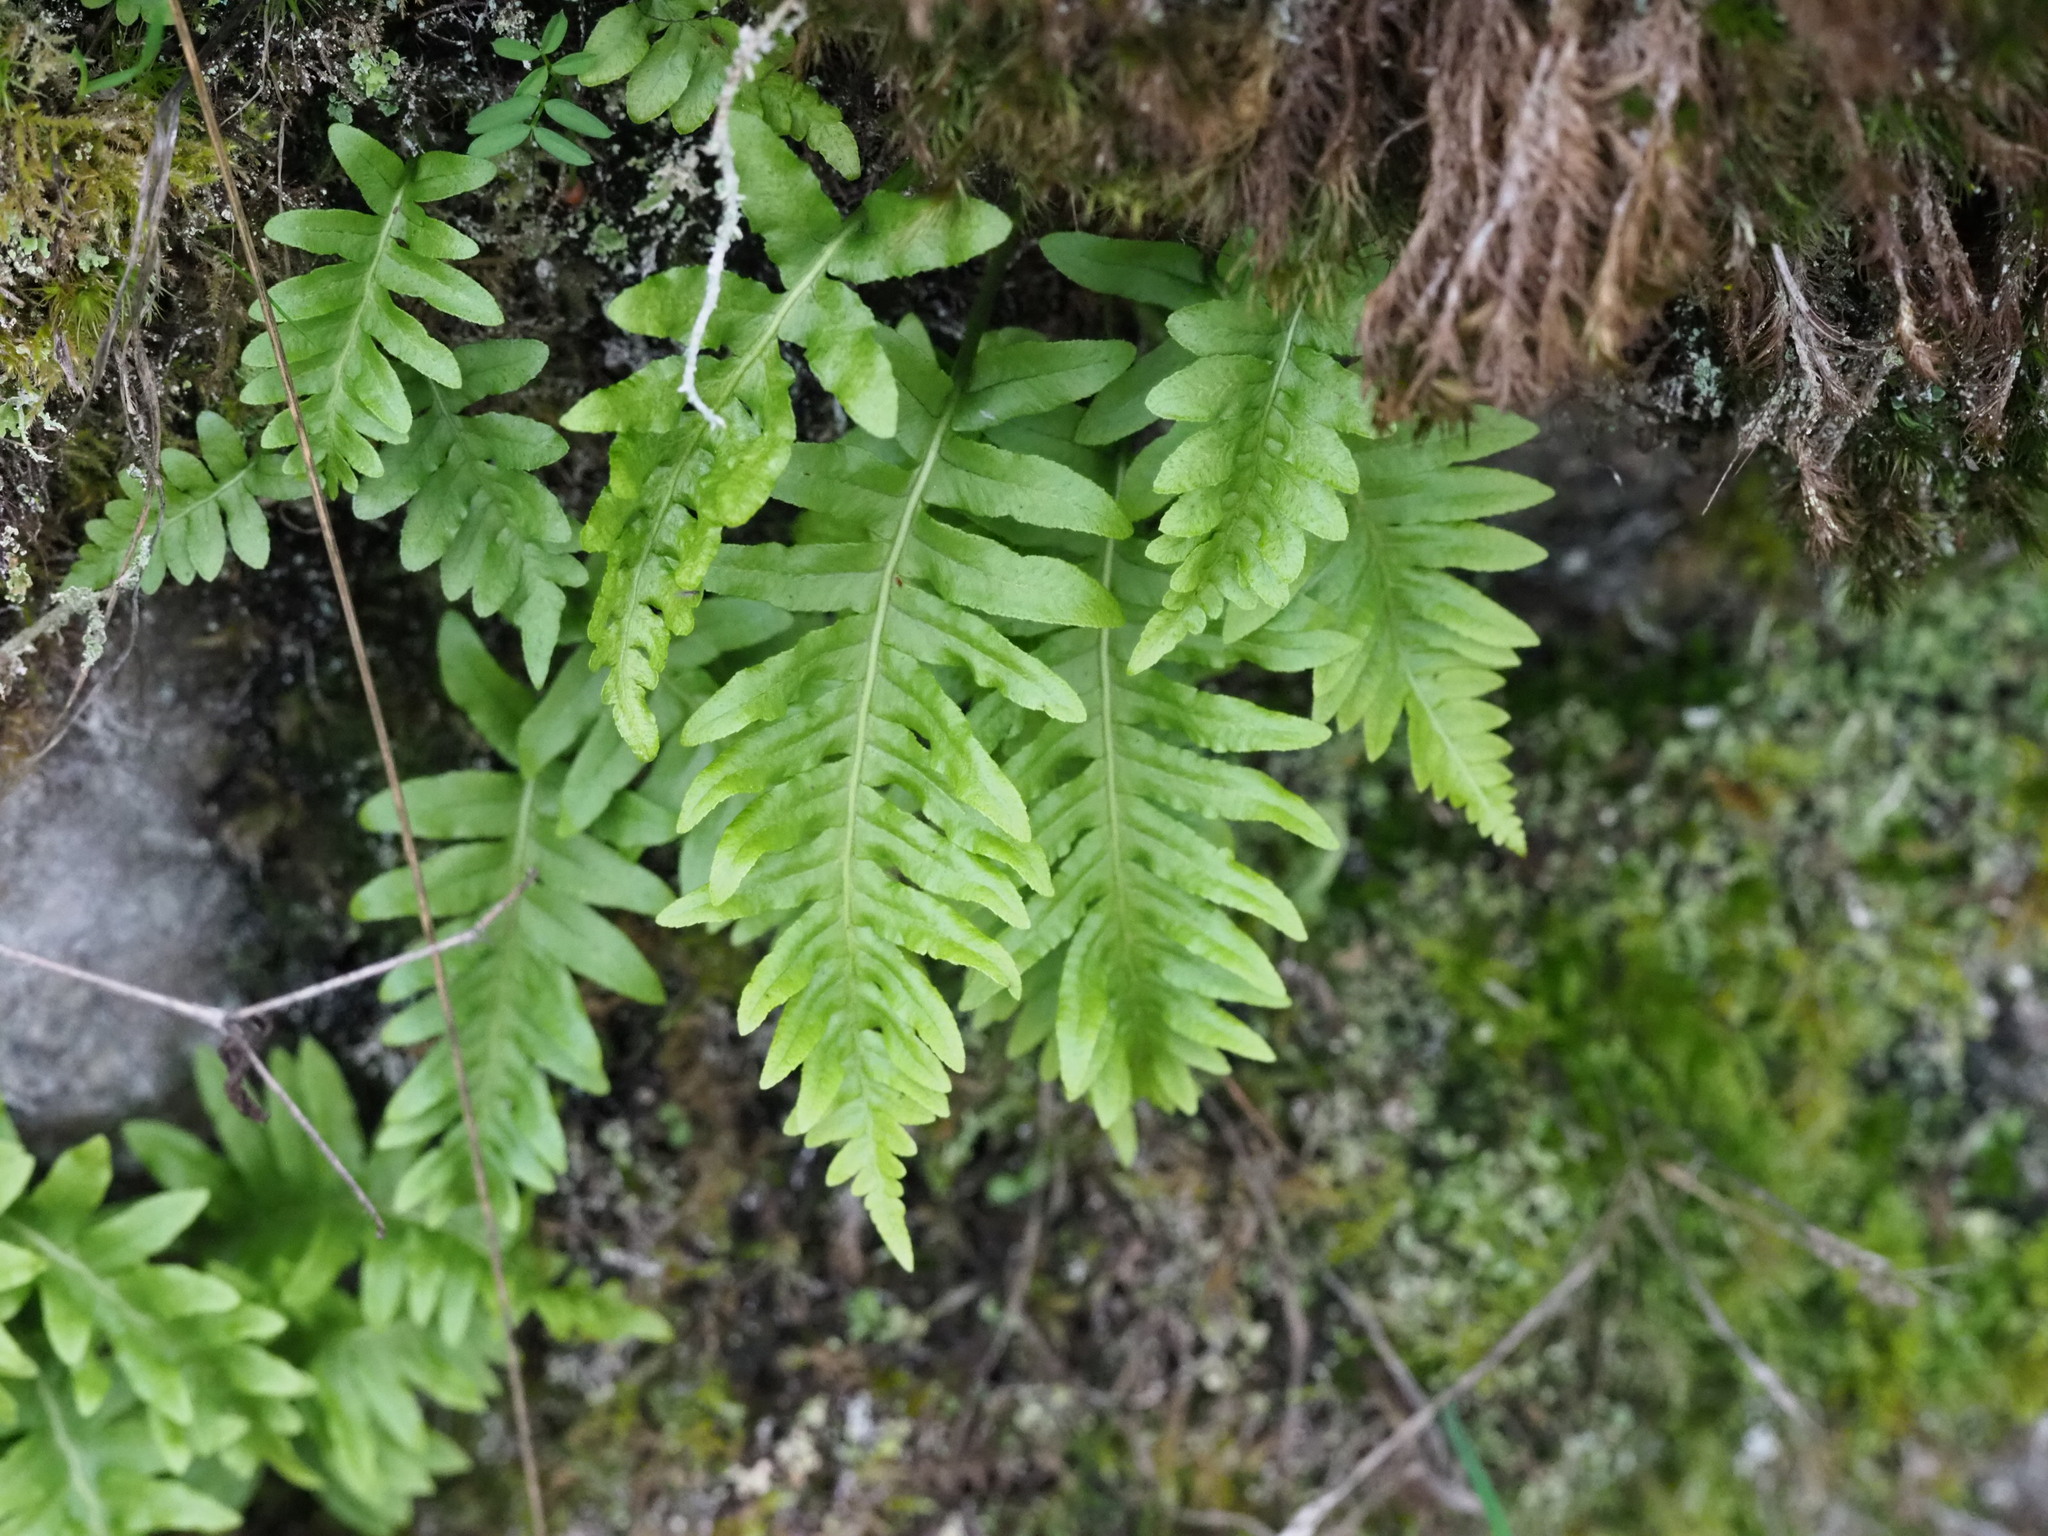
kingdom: Plantae
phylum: Tracheophyta
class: Polypodiopsida
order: Polypodiales
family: Polypodiaceae
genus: Polypodium
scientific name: Polypodium glycyrrhiza
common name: Licorice fern
